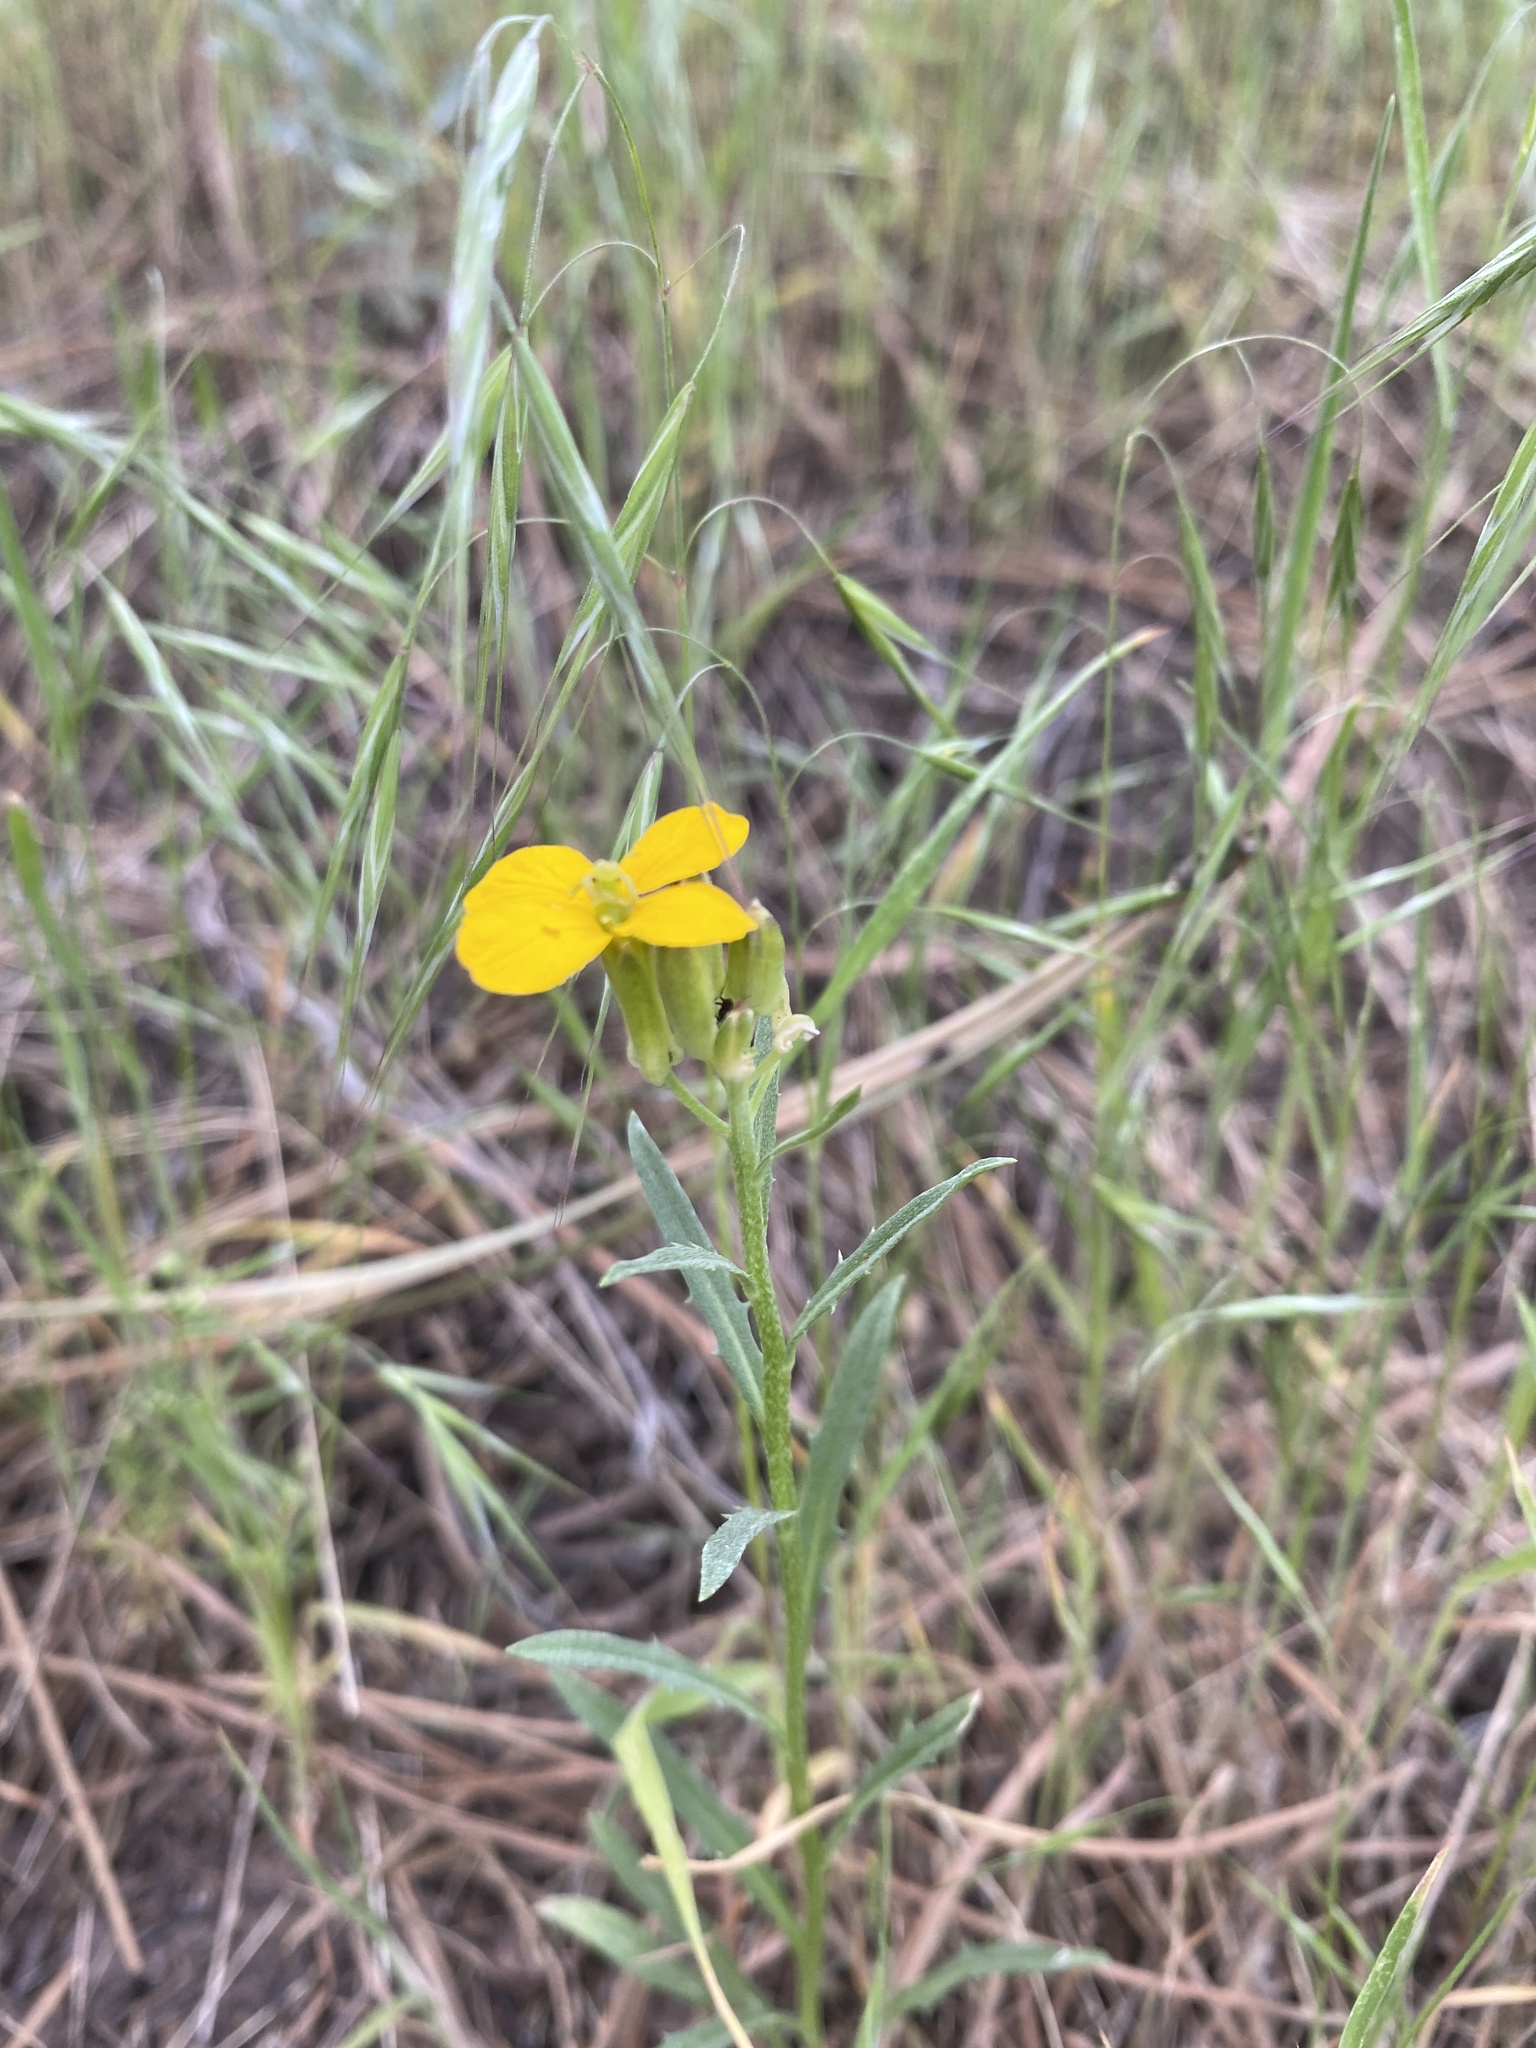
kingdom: Plantae
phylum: Tracheophyta
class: Magnoliopsida
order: Brassicales
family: Brassicaceae
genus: Erysimum
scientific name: Erysimum capitatum
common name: Western wallflower
